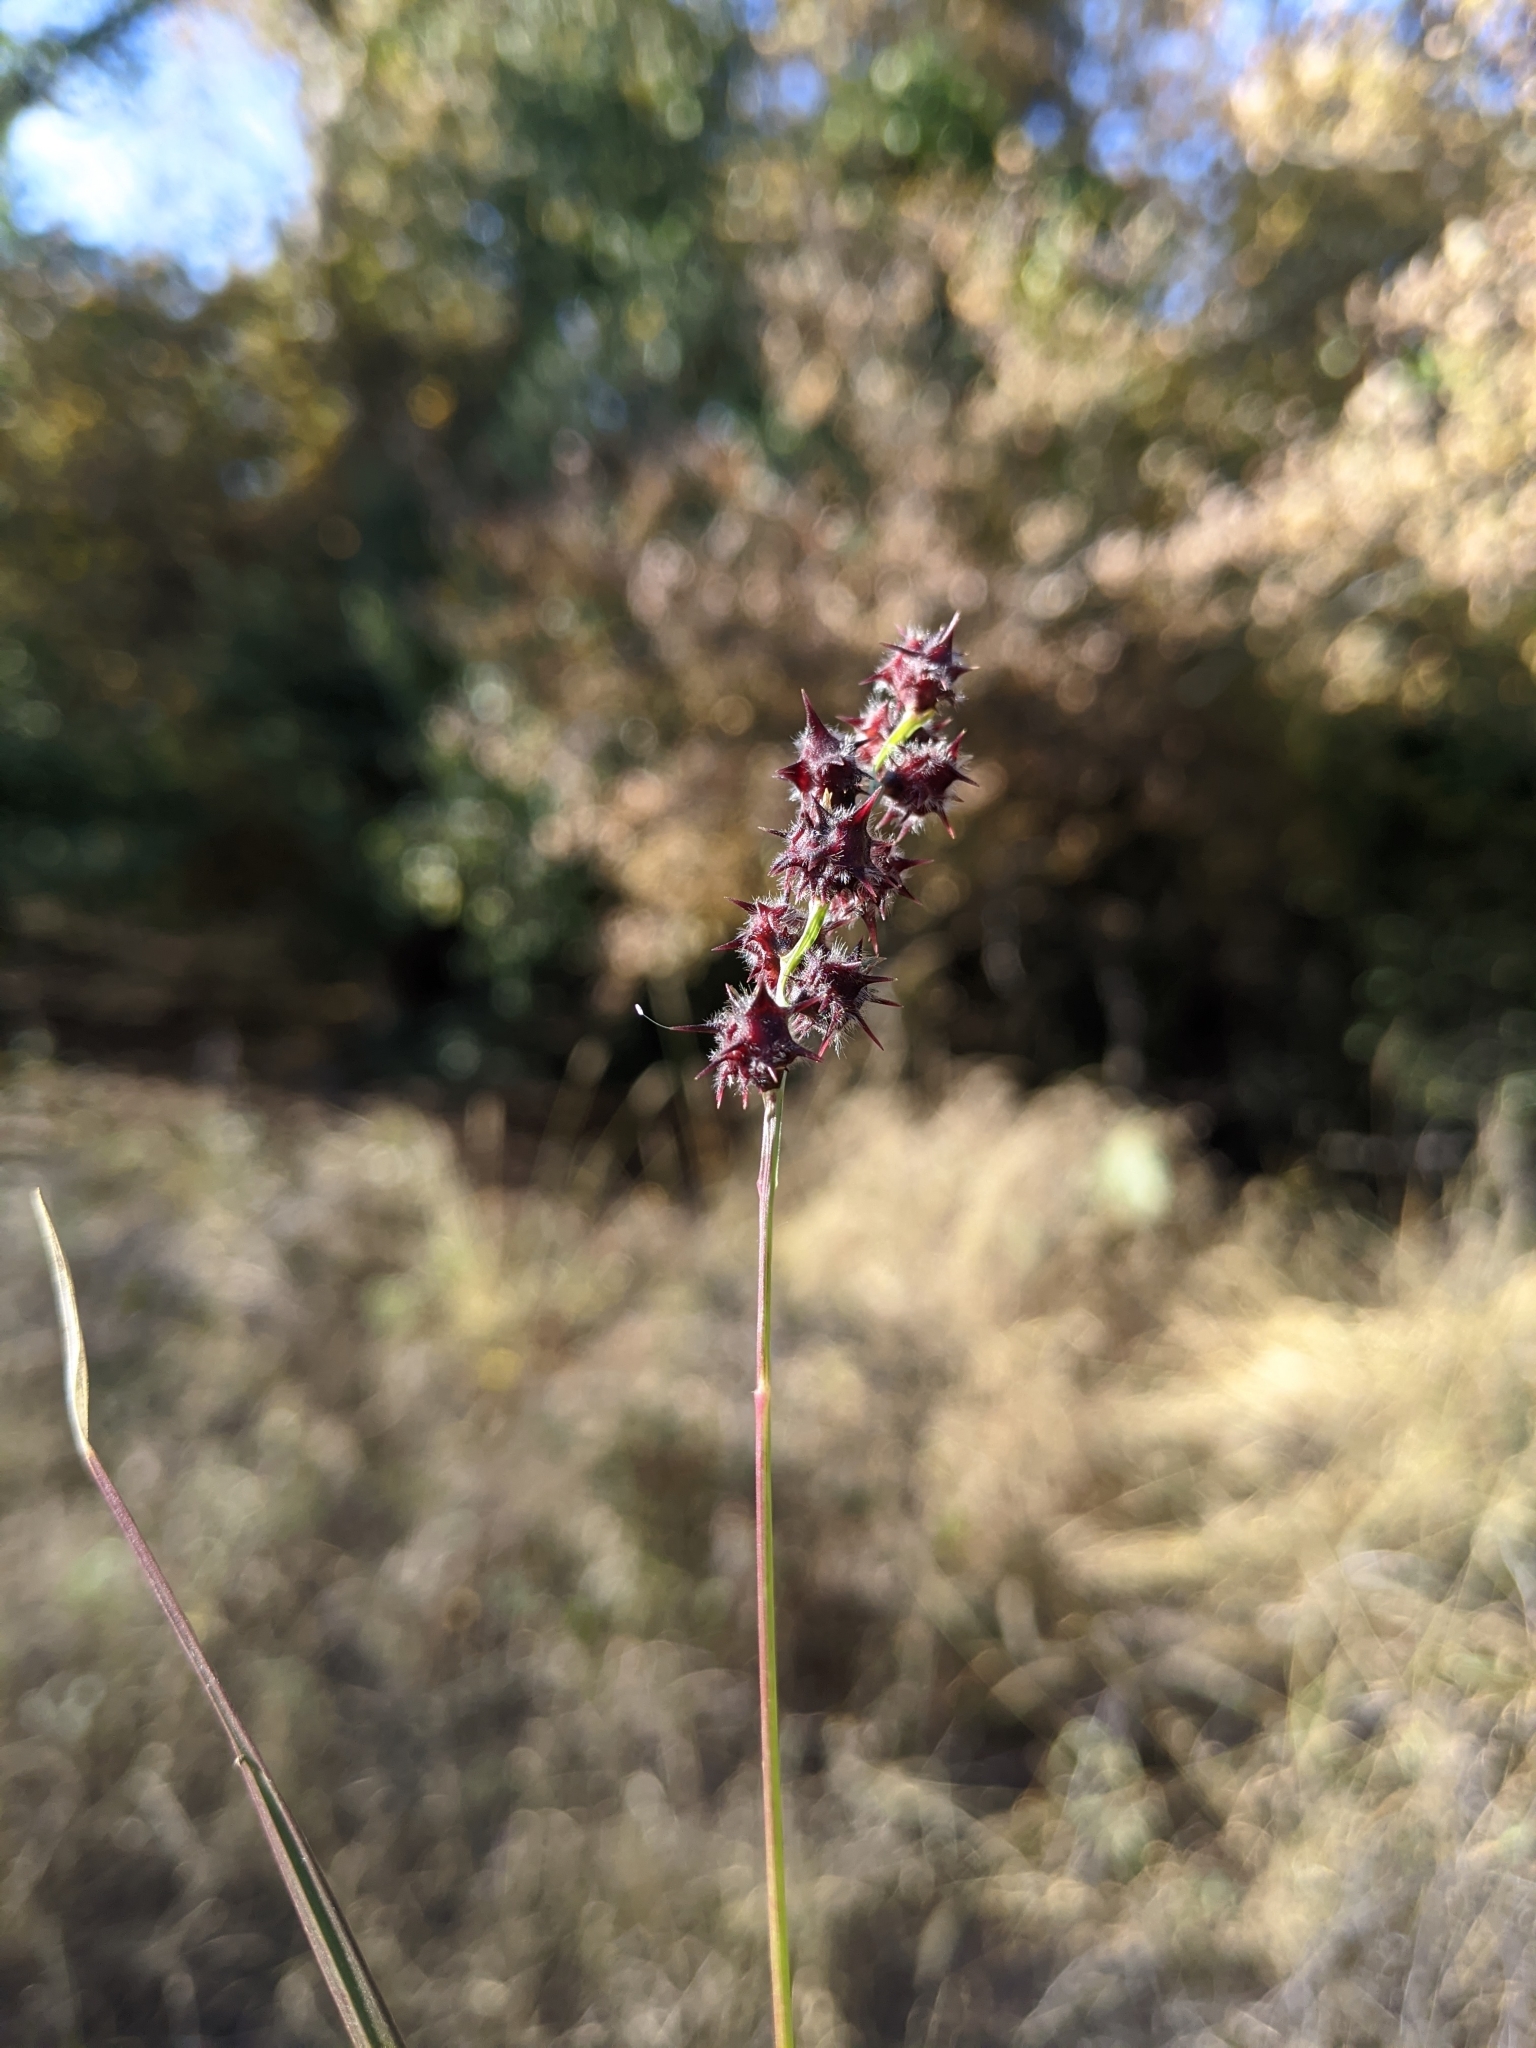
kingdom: Plantae
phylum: Tracheophyta
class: Liliopsida
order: Poales
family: Poaceae
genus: Cenchrus
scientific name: Cenchrus spinifex
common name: Coast sandbur
